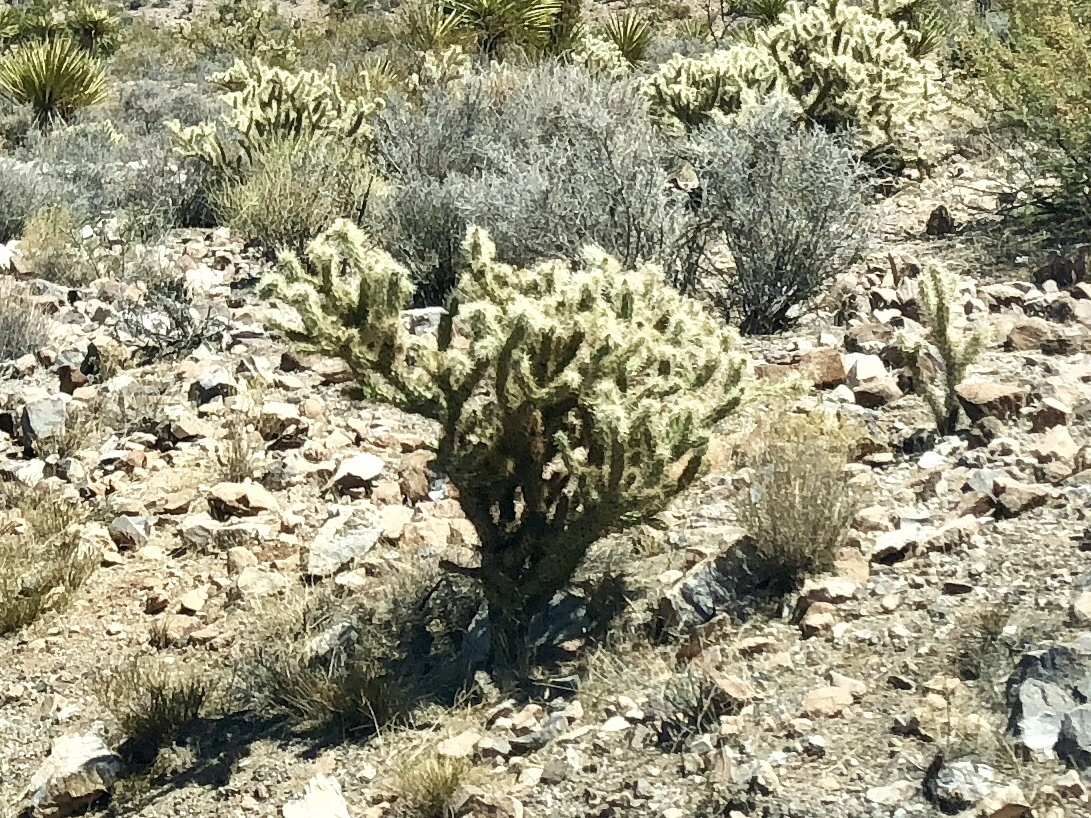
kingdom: Plantae
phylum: Tracheophyta
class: Magnoliopsida
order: Caryophyllales
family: Cactaceae
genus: Cylindropuntia
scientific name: Cylindropuntia acanthocarpa
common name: Buckhorn cholla
